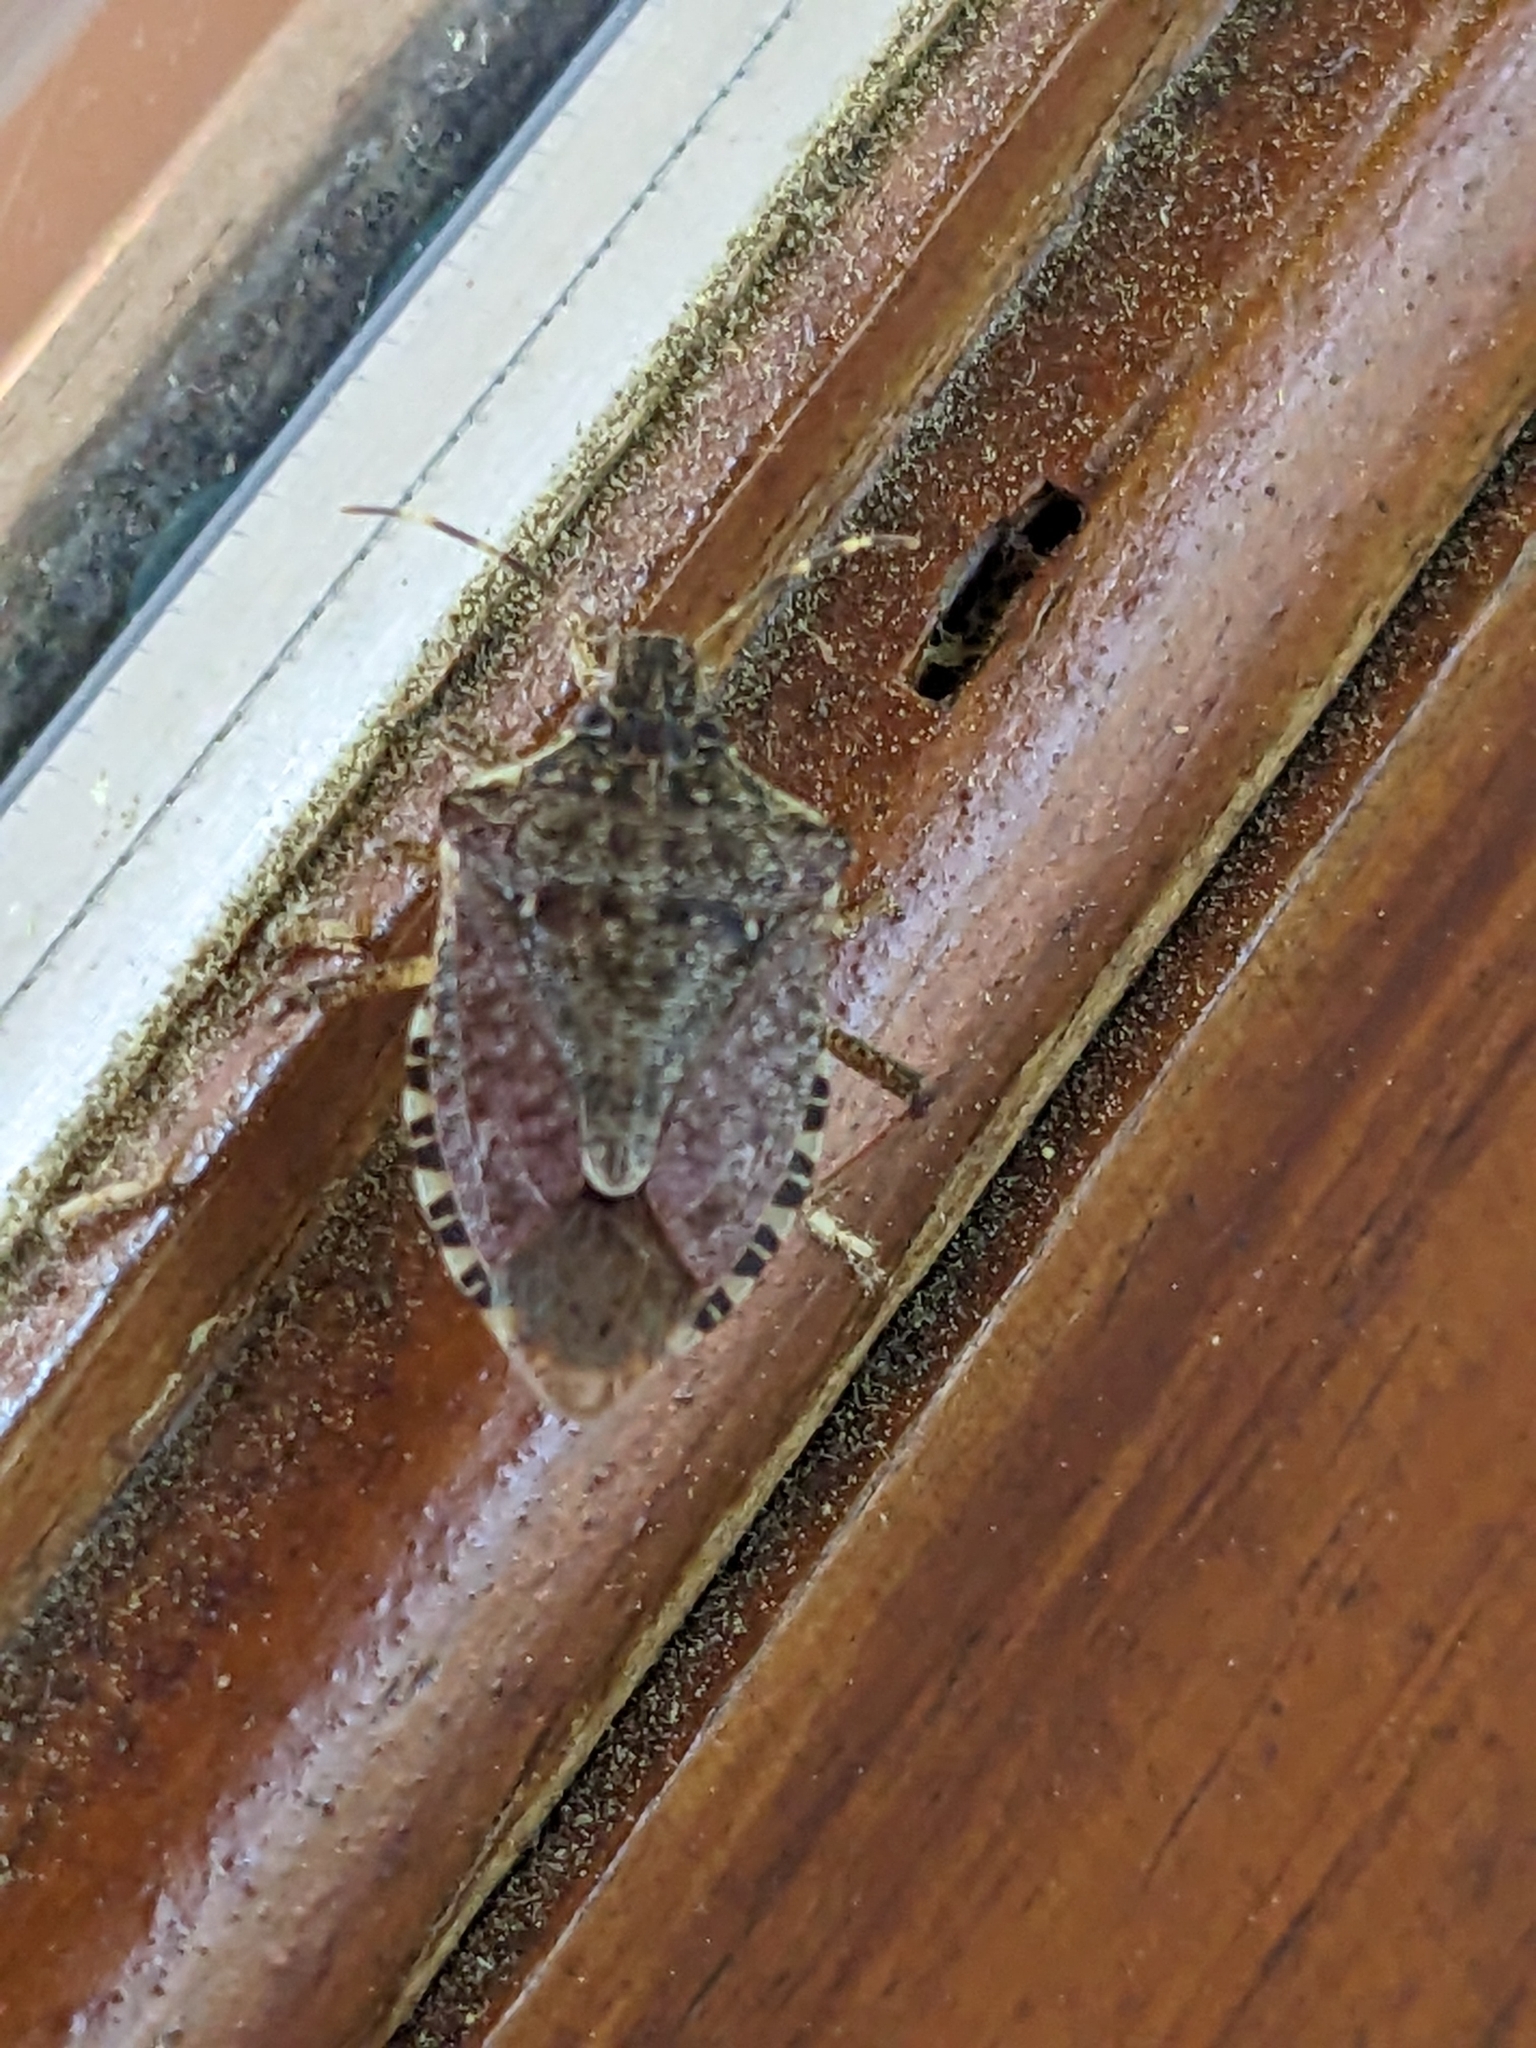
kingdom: Animalia
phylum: Arthropoda
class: Insecta
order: Hemiptera
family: Pentatomidae
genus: Halyomorpha
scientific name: Halyomorpha halys
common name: Brown marmorated stink bug
